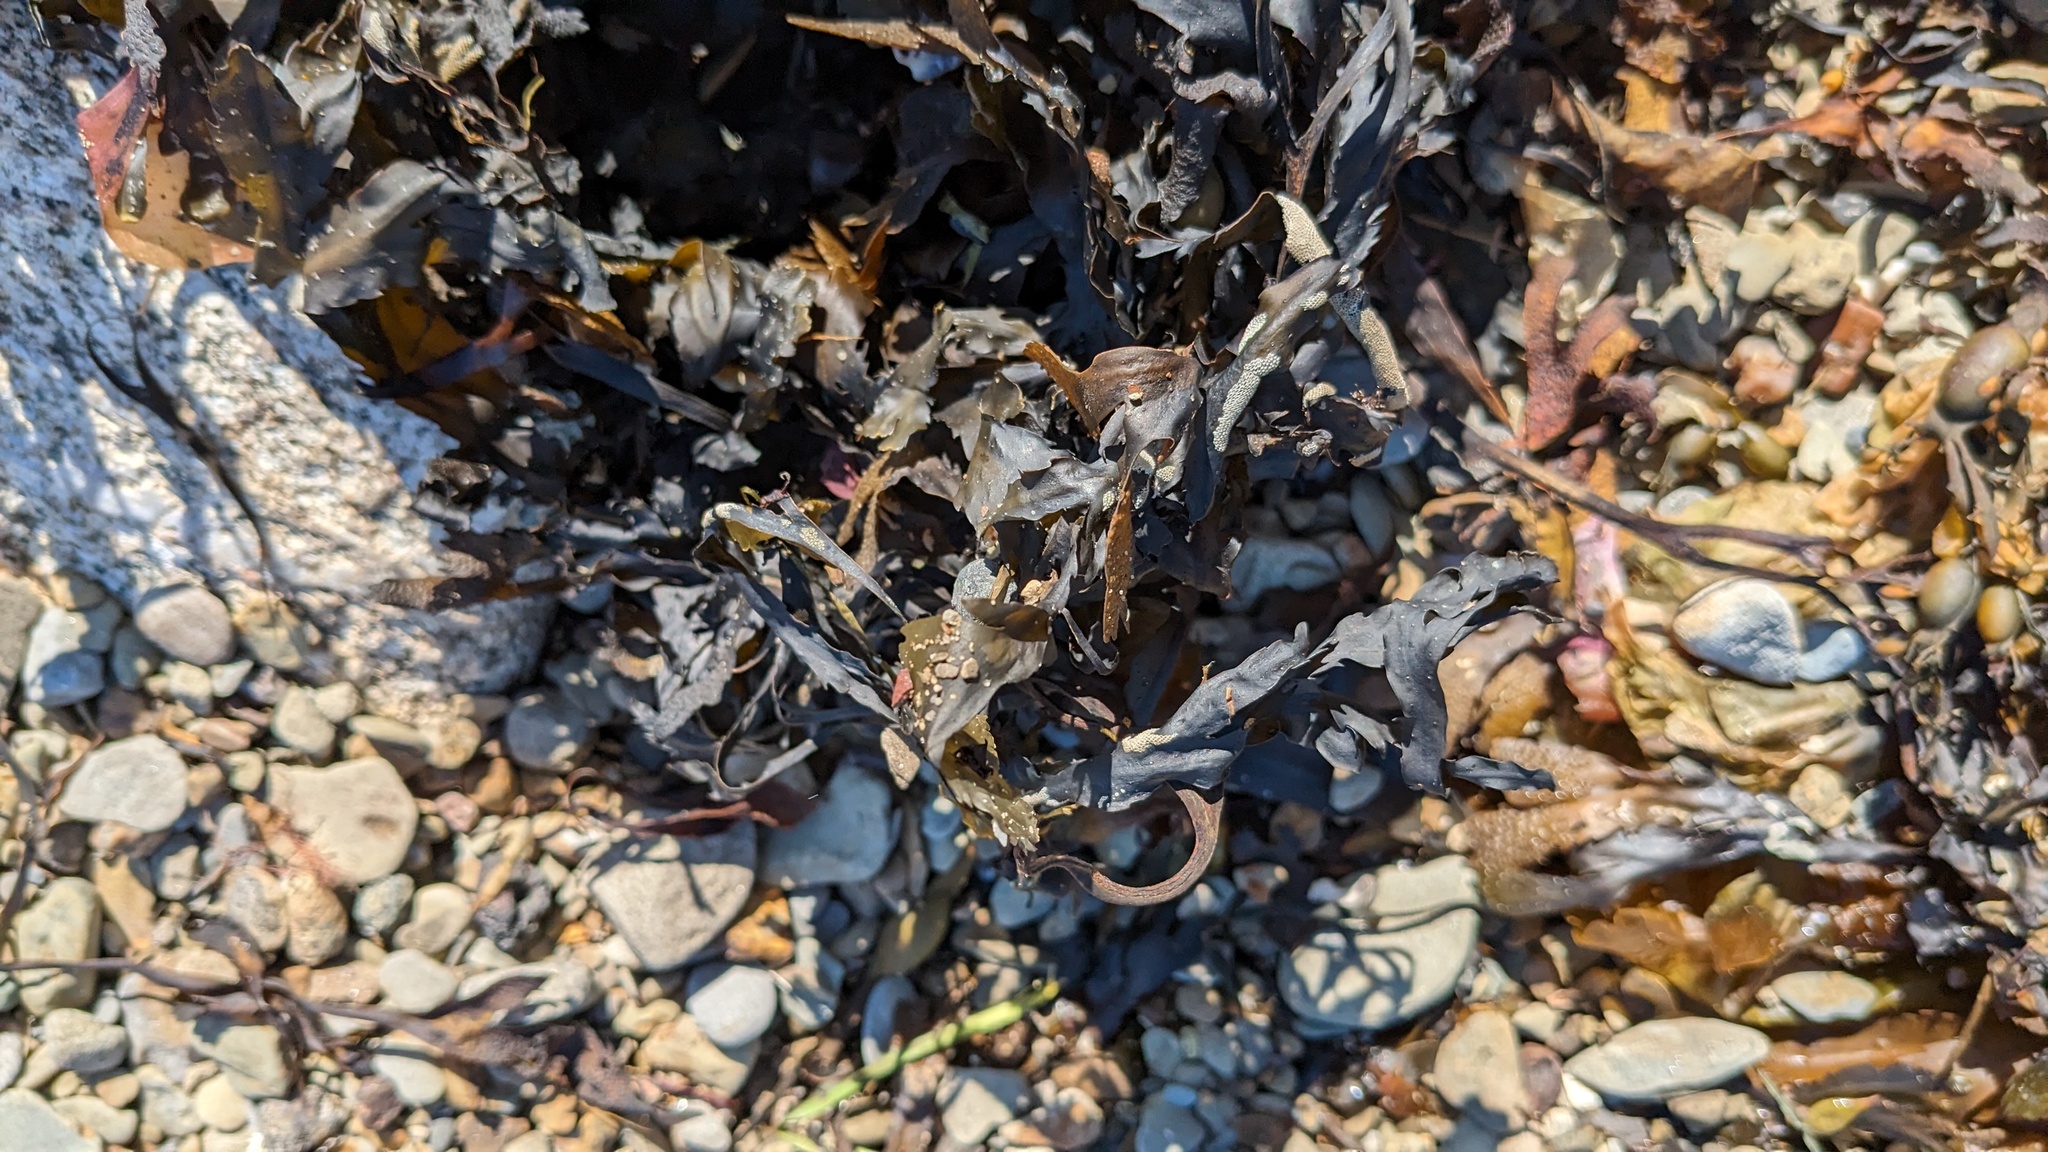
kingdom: Chromista
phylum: Ochrophyta
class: Phaeophyceae
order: Fucales
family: Fucaceae
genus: Fucus
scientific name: Fucus serratus
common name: Toothed wrack
